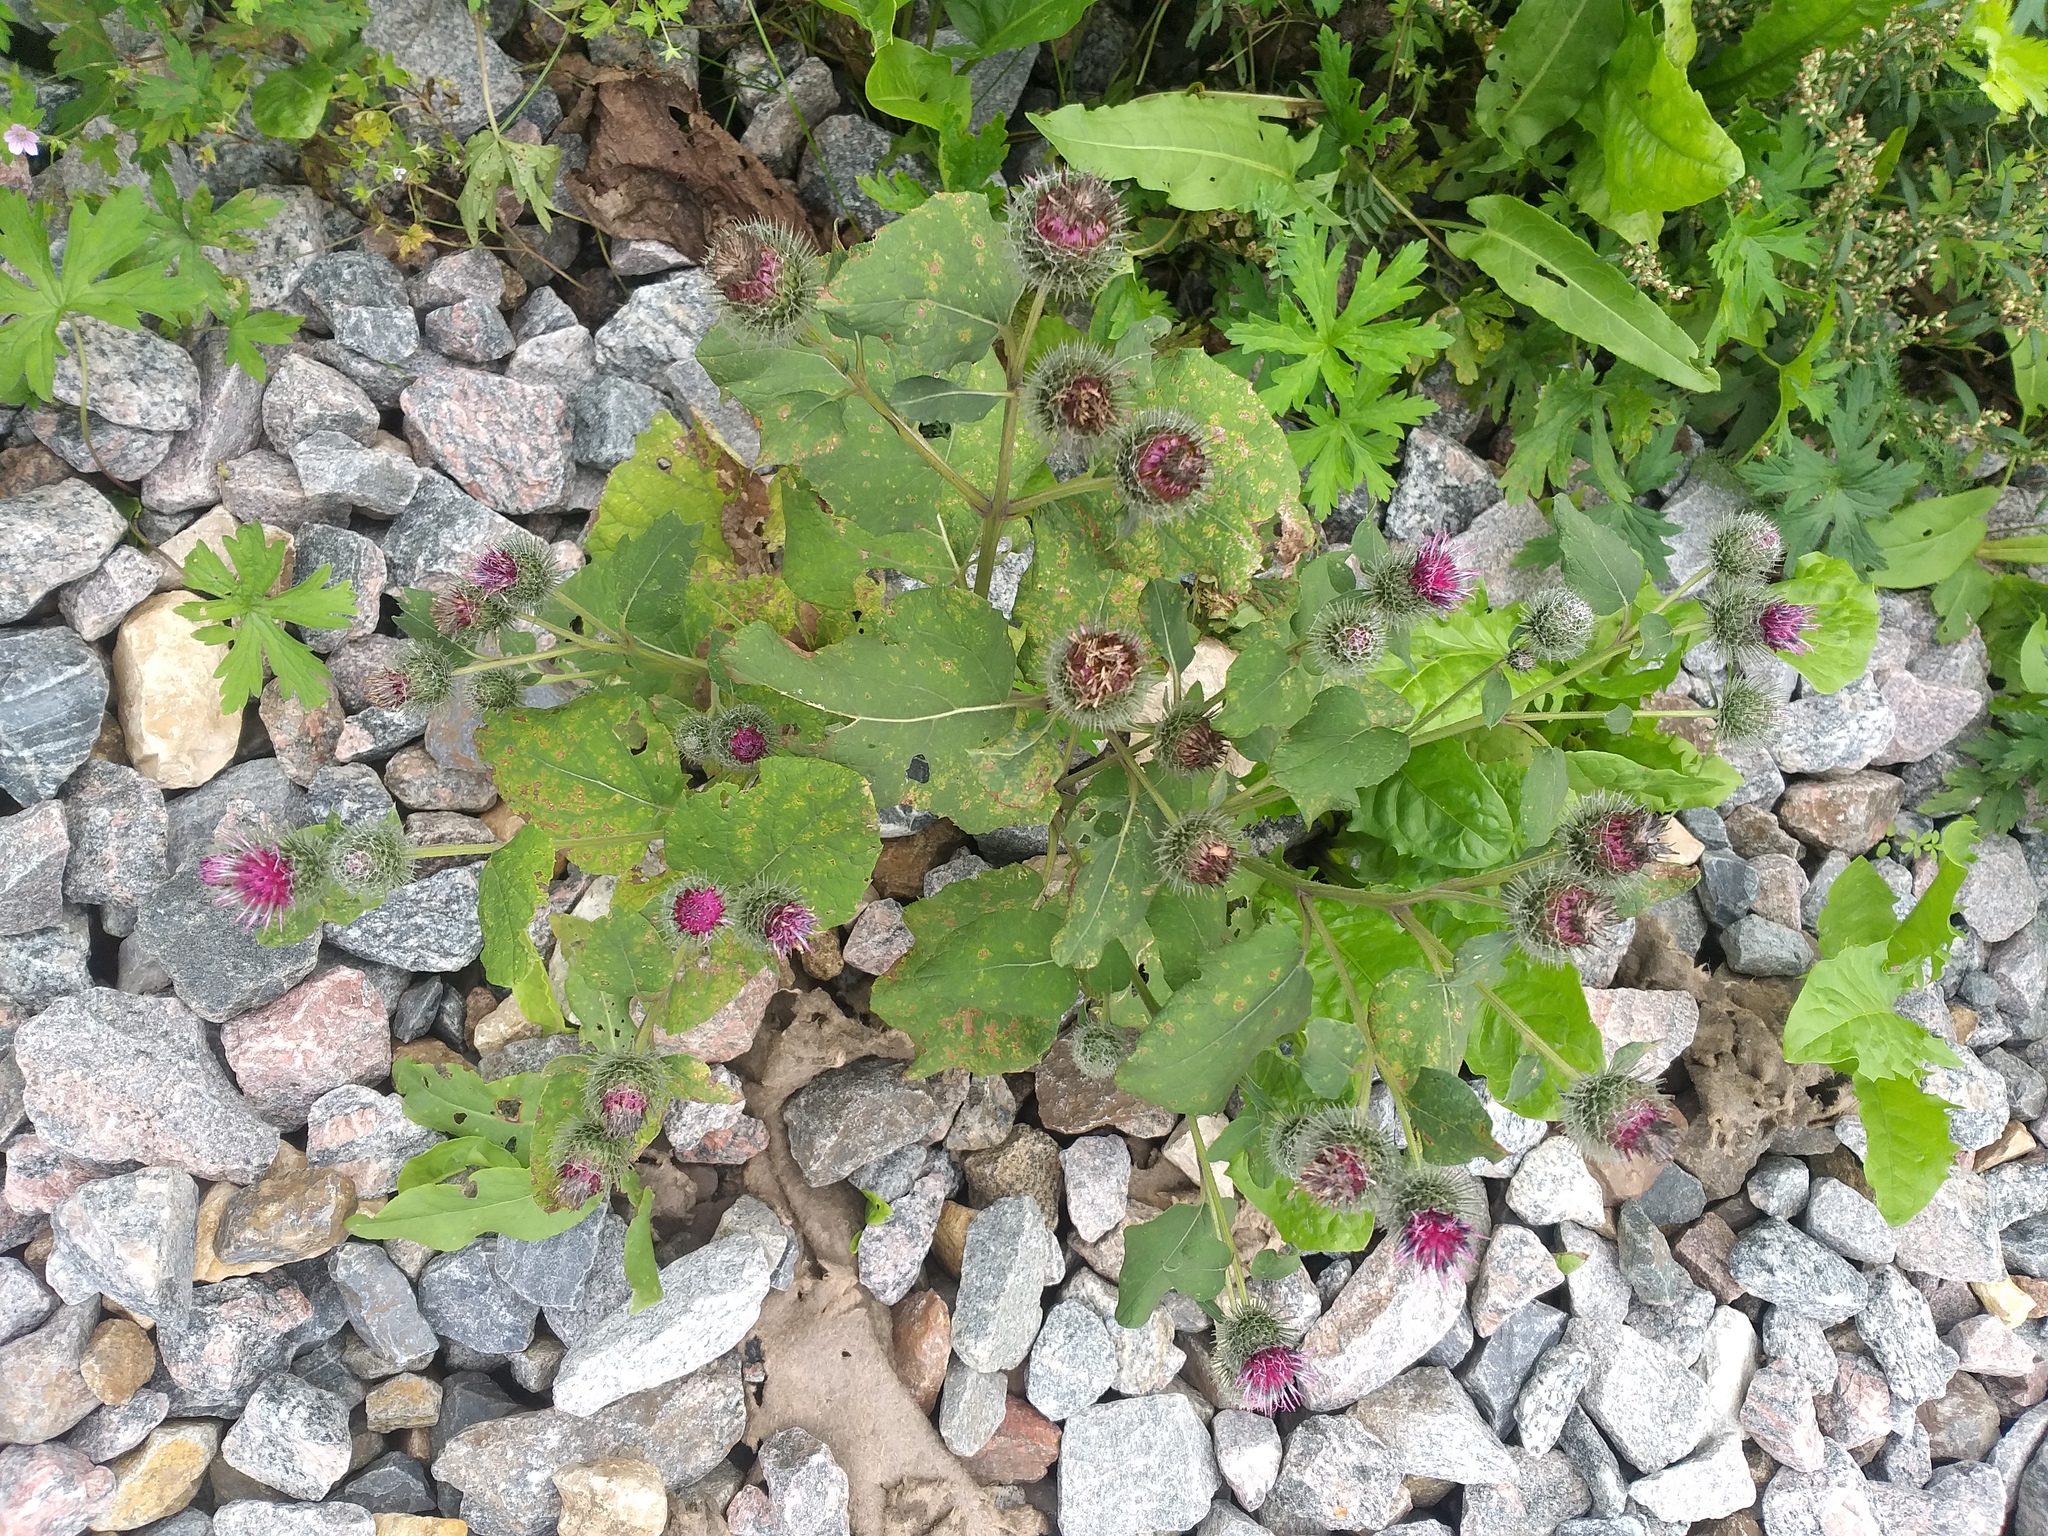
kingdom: Plantae
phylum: Tracheophyta
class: Magnoliopsida
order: Asterales
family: Asteraceae
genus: Arctium
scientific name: Arctium tomentosum
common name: Woolly burdock
